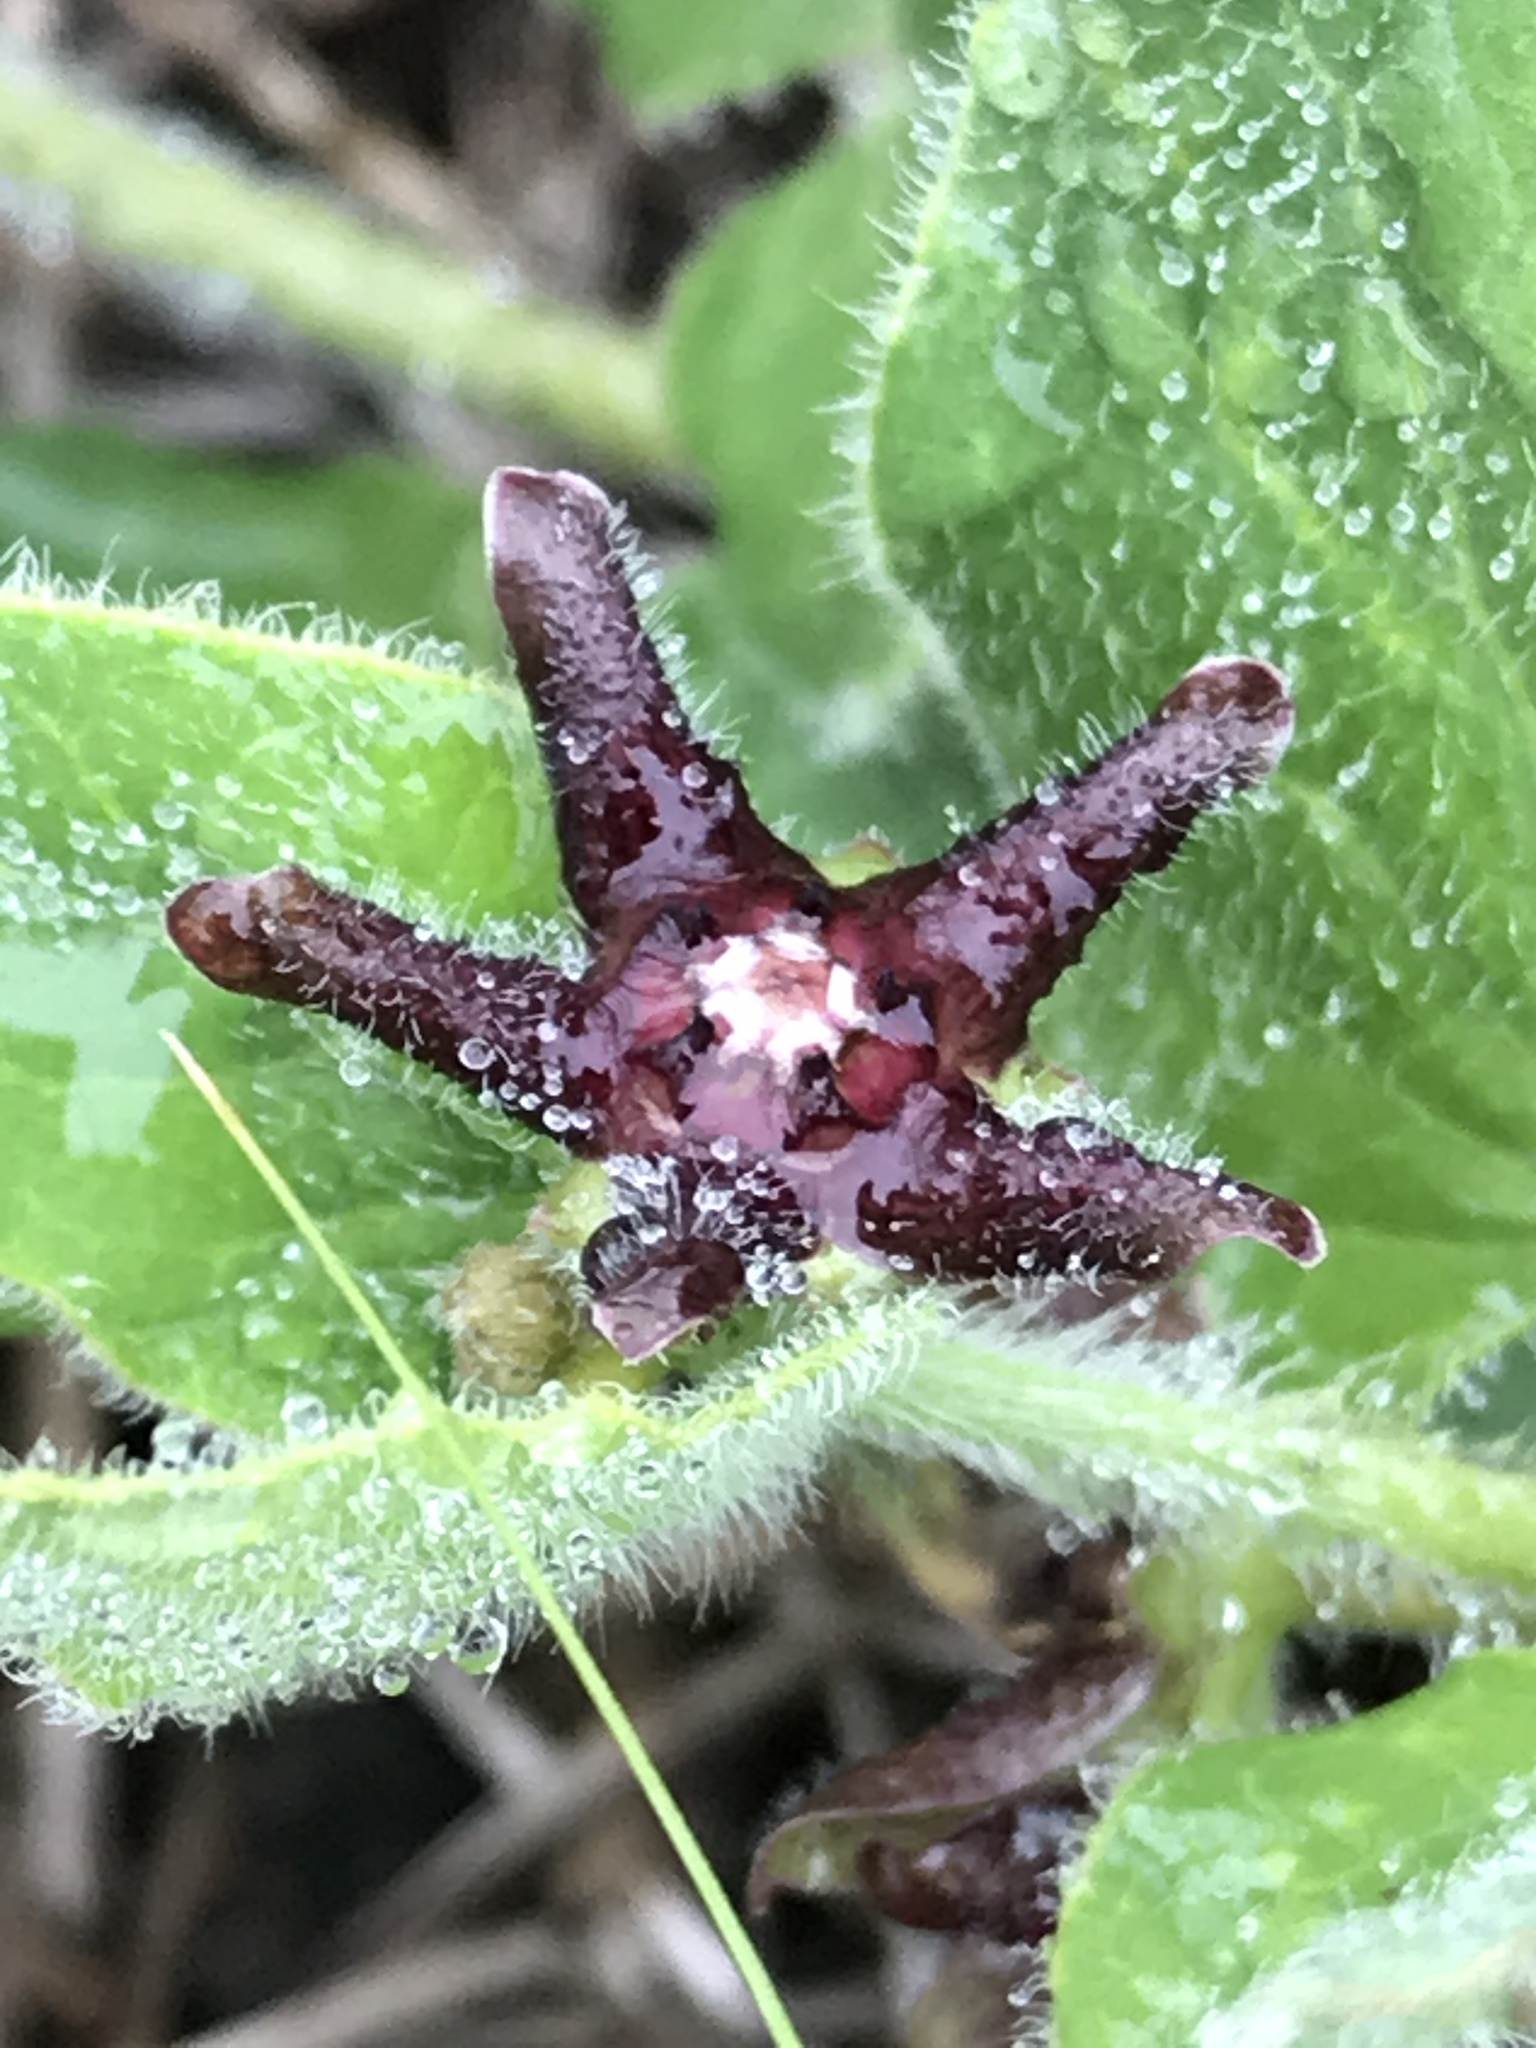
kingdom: Plantae
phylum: Tracheophyta
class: Magnoliopsida
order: Gentianales
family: Apocynaceae
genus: Chthamalia
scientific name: Chthamalia biflora
